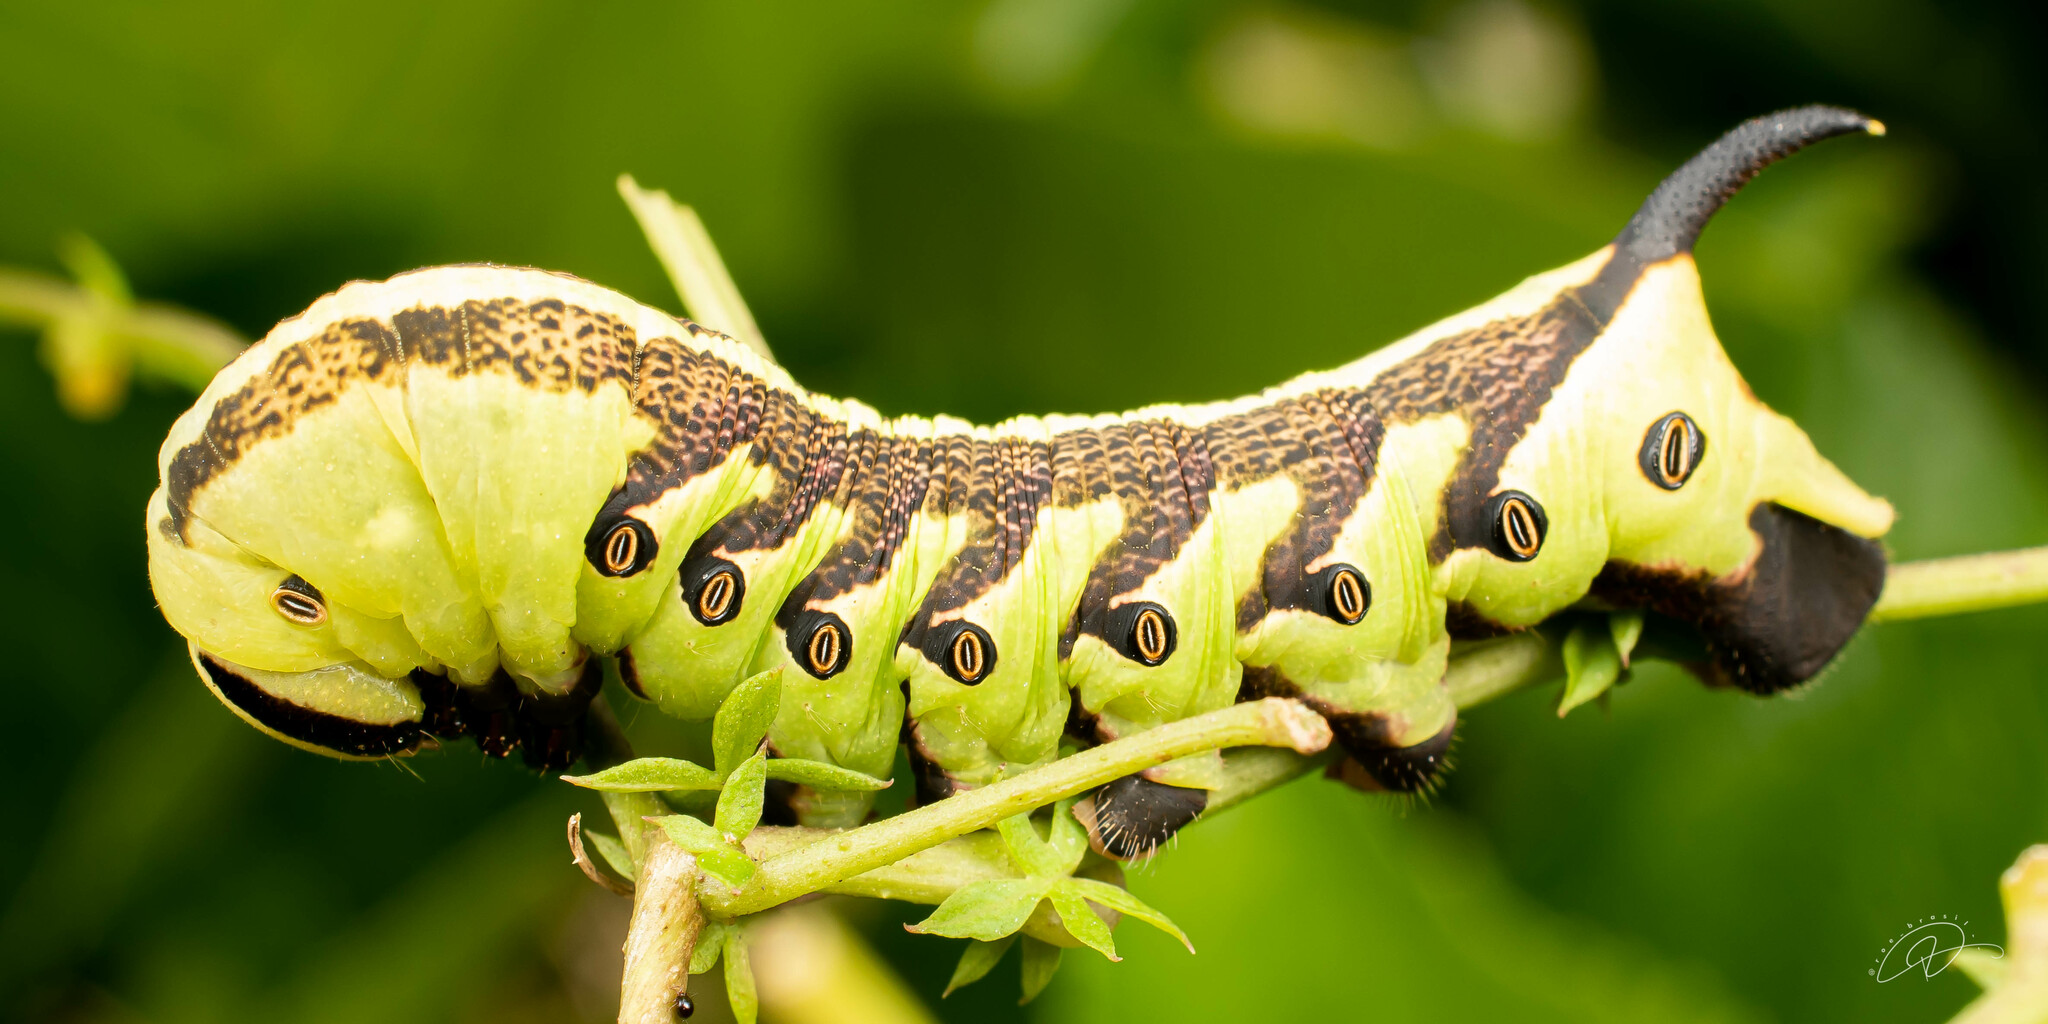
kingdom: Animalia
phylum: Arthropoda
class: Insecta
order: Lepidoptera
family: Sphingidae
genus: Agrius
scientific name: Agrius cingulata
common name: Pink-spotted hawkmoth
